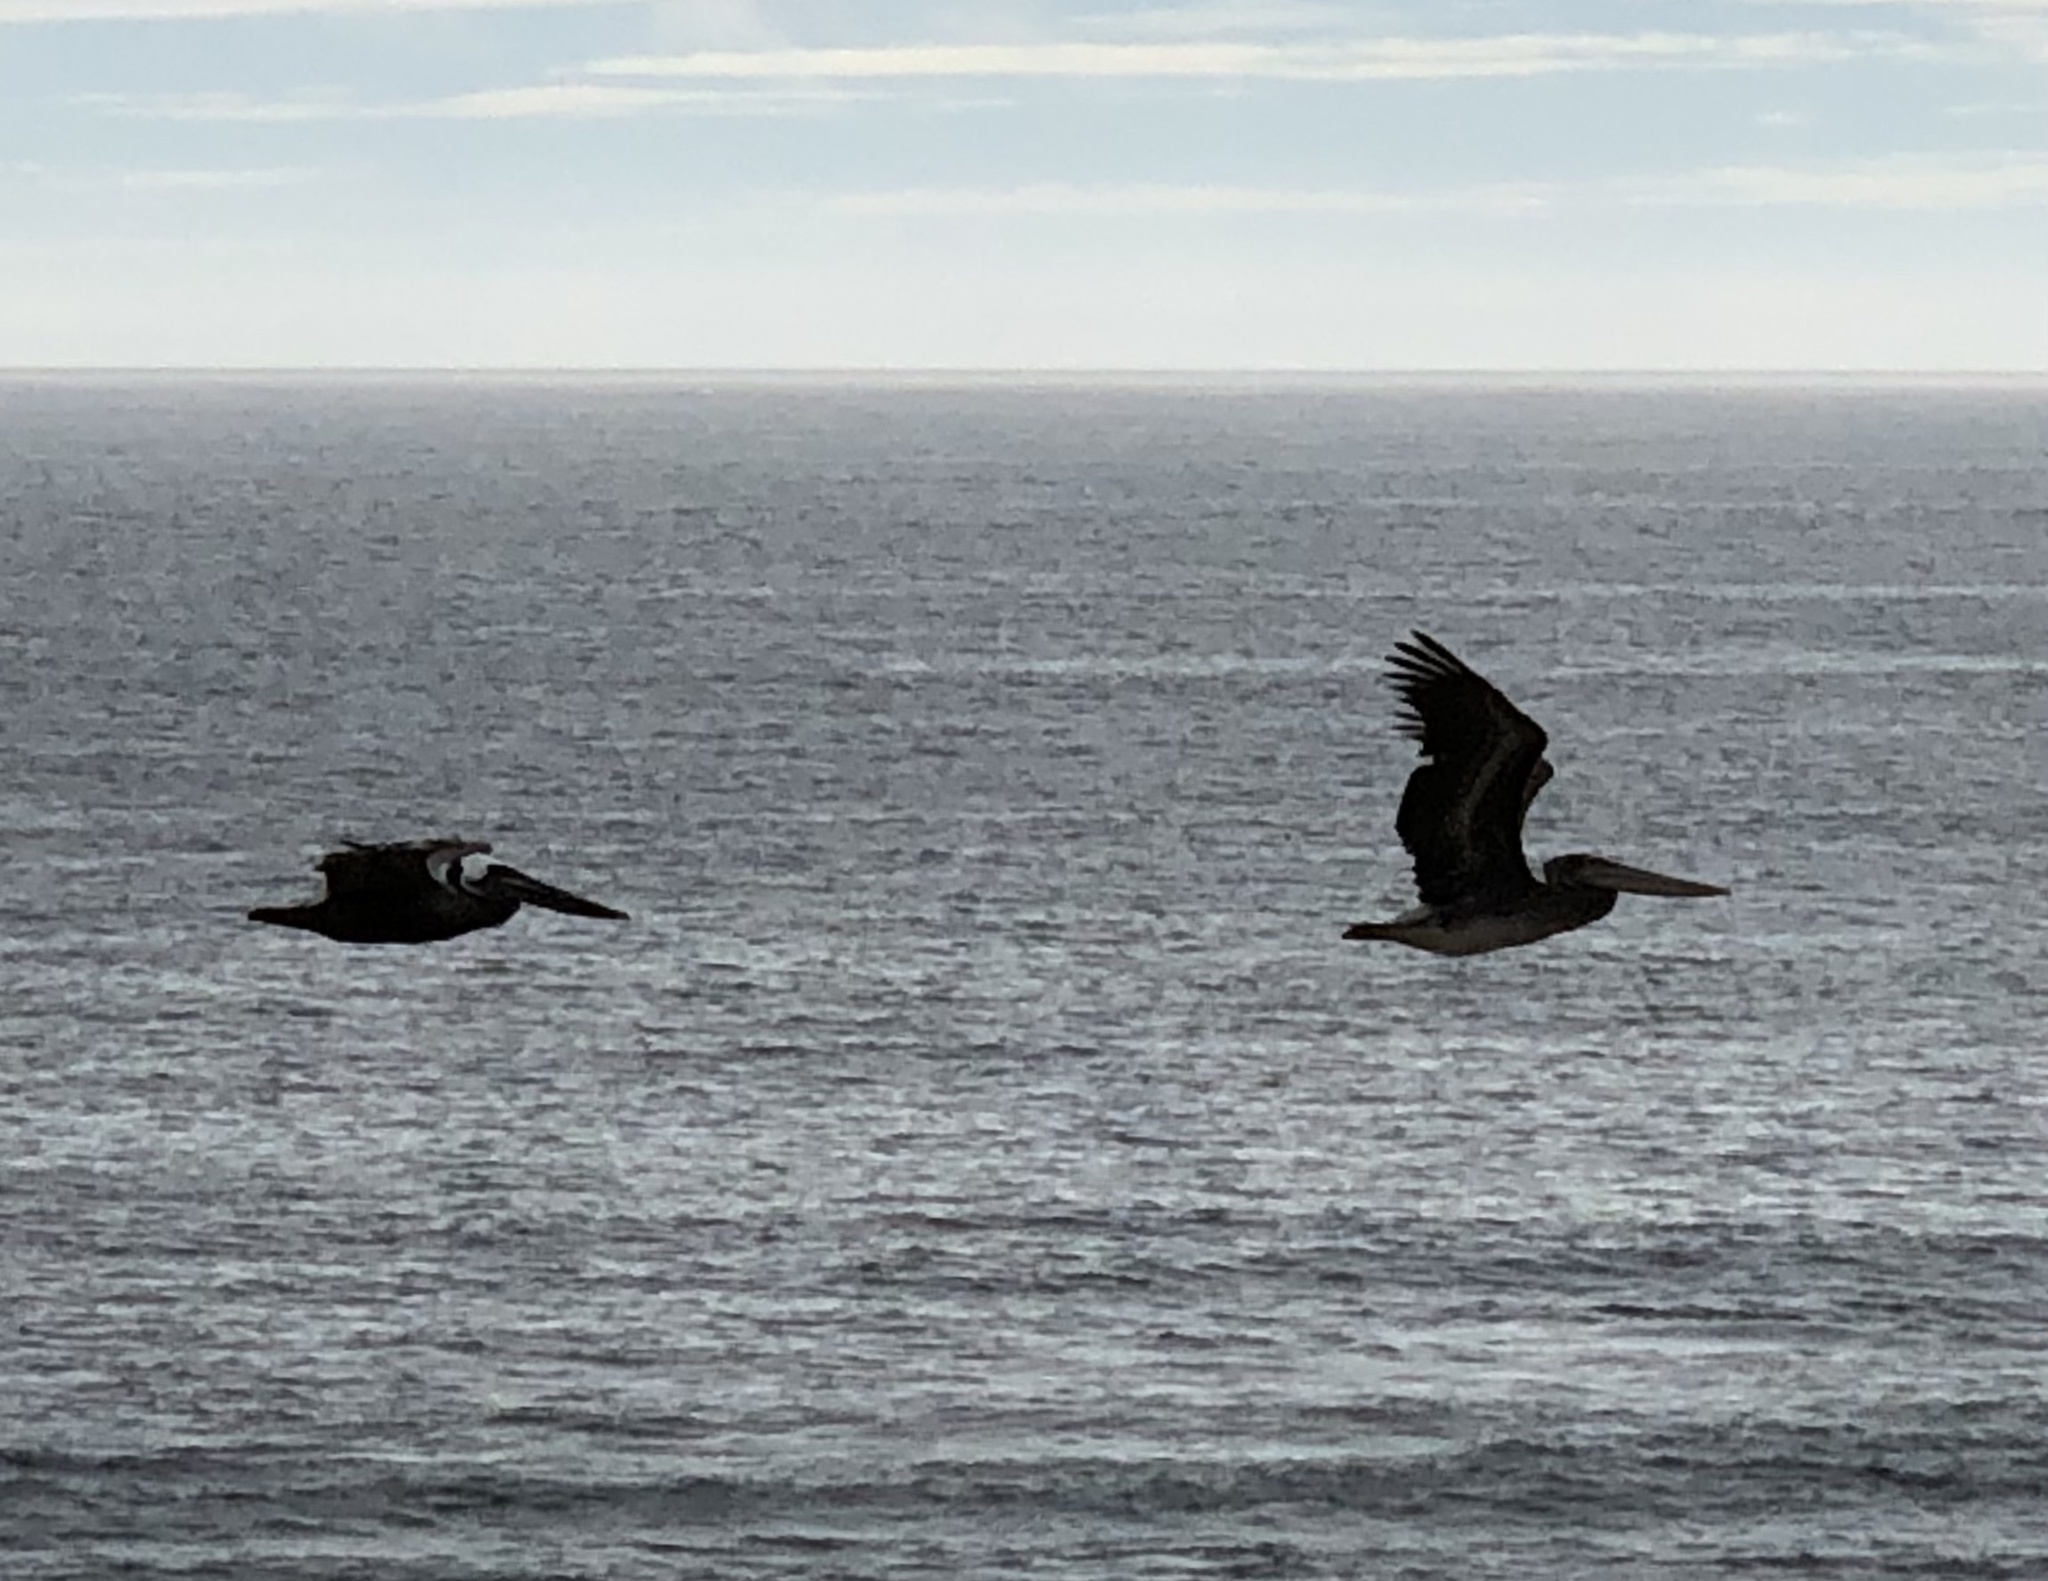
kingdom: Animalia
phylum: Chordata
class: Aves
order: Pelecaniformes
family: Pelecanidae
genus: Pelecanus
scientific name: Pelecanus occidentalis
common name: Brown pelican
